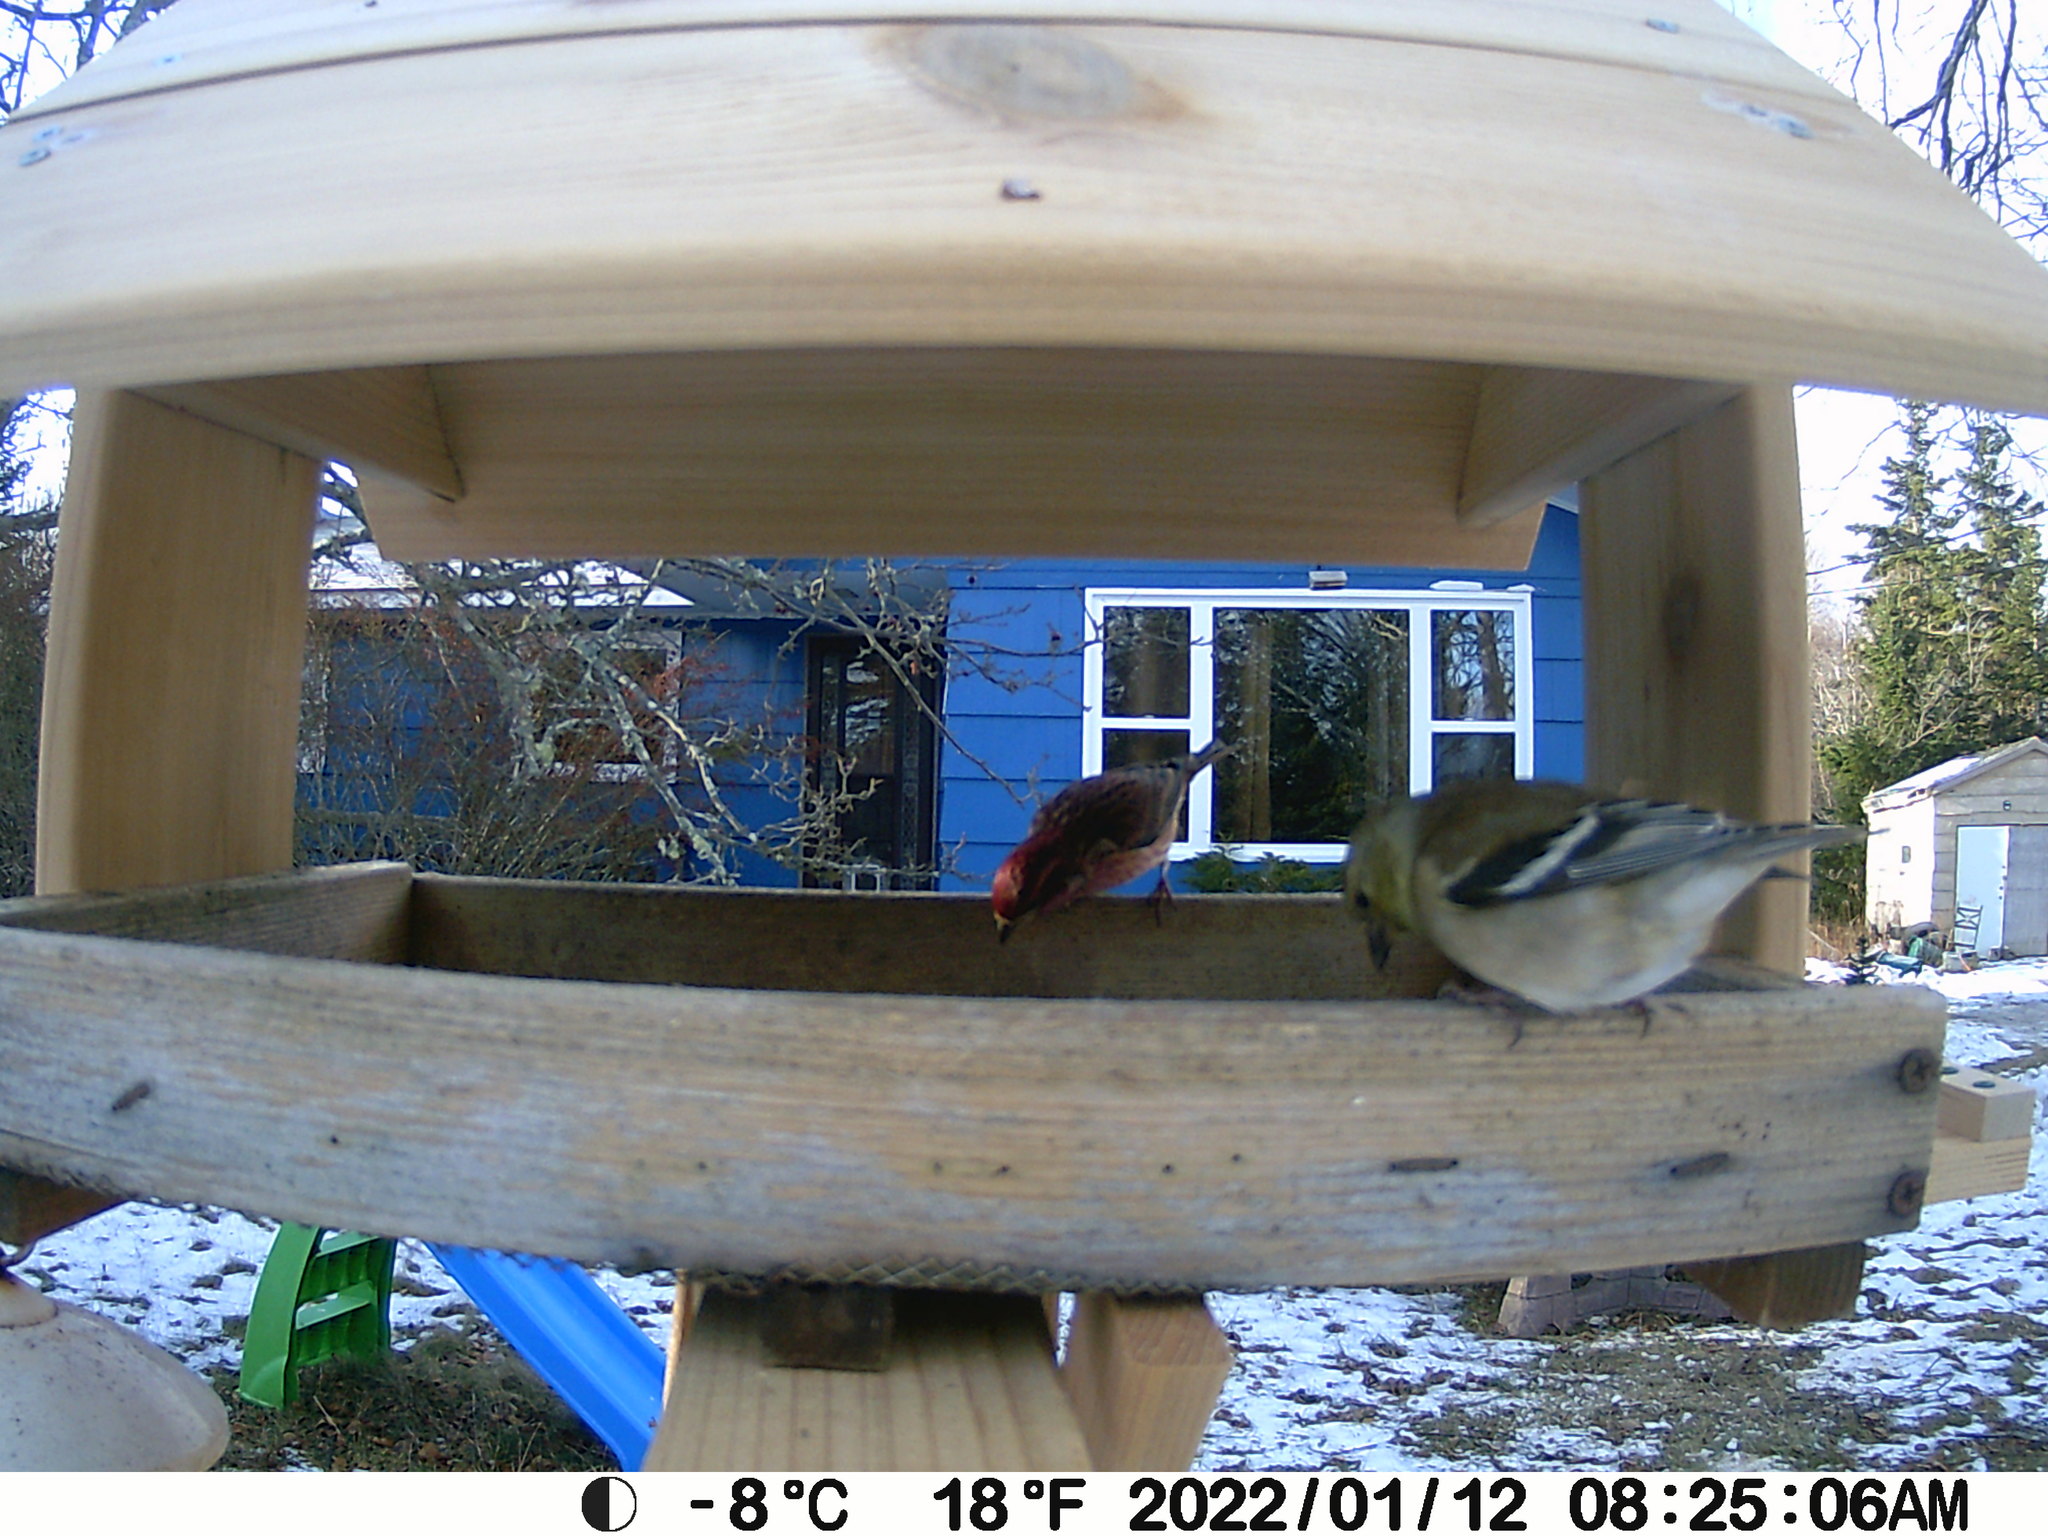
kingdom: Animalia
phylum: Chordata
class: Aves
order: Passeriformes
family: Fringillidae
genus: Haemorhous
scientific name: Haemorhous purpureus
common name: Purple finch
